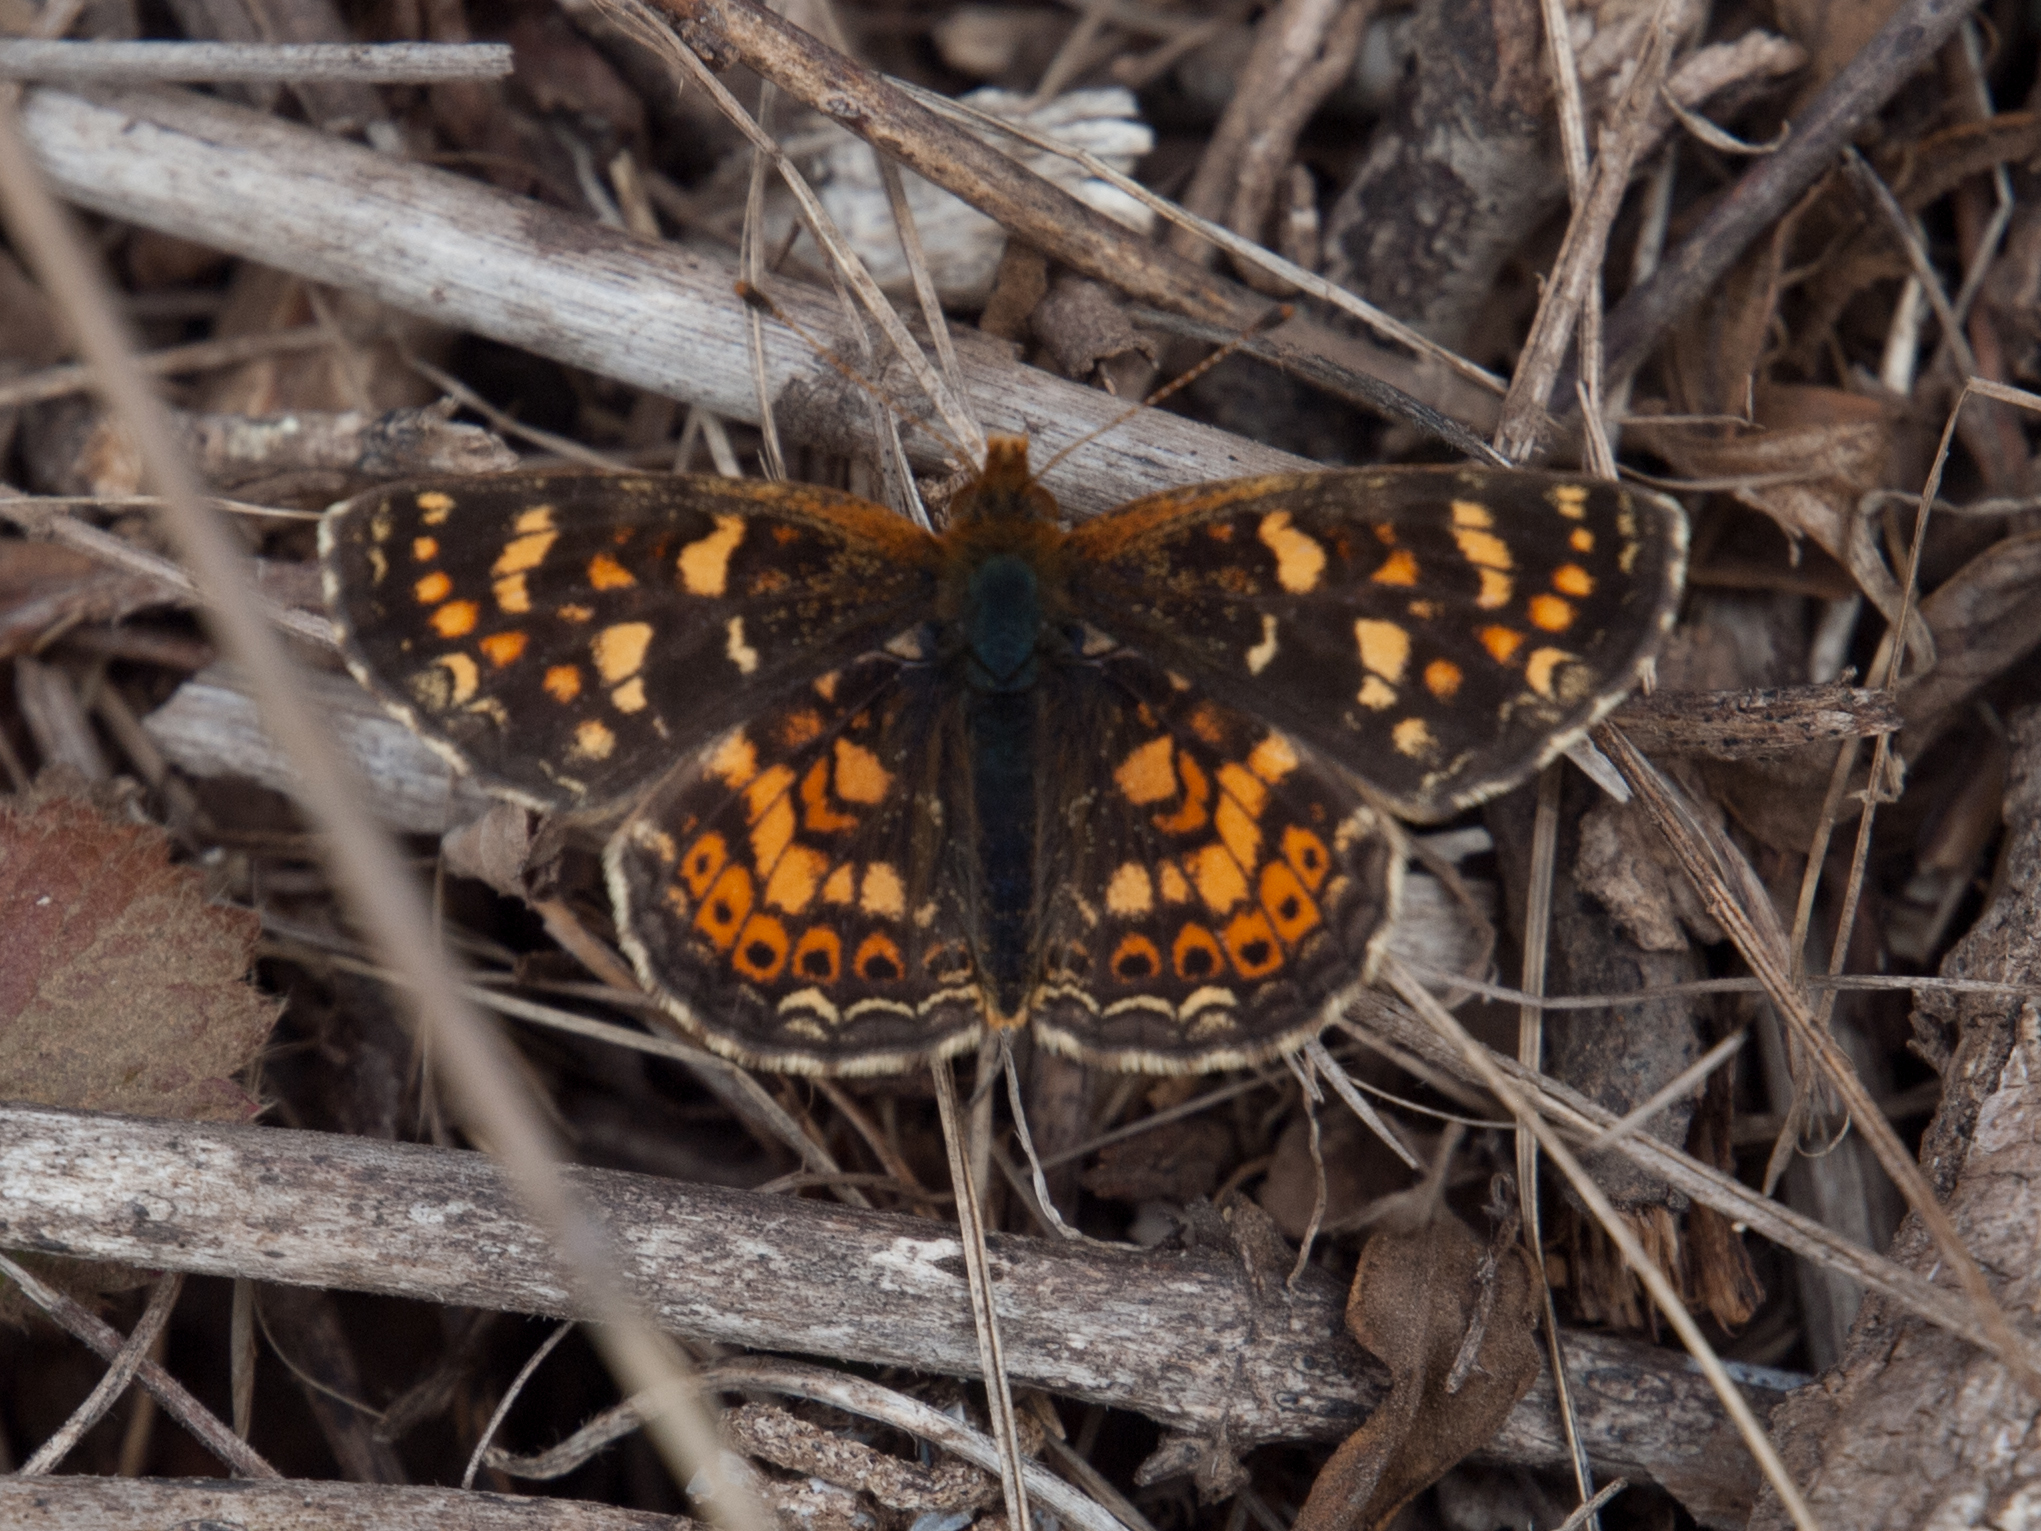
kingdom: Animalia
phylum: Arthropoda
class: Insecta
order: Lepidoptera
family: Nymphalidae
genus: Phyciodes
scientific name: Phyciodes tharos
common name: Pearl crescent
